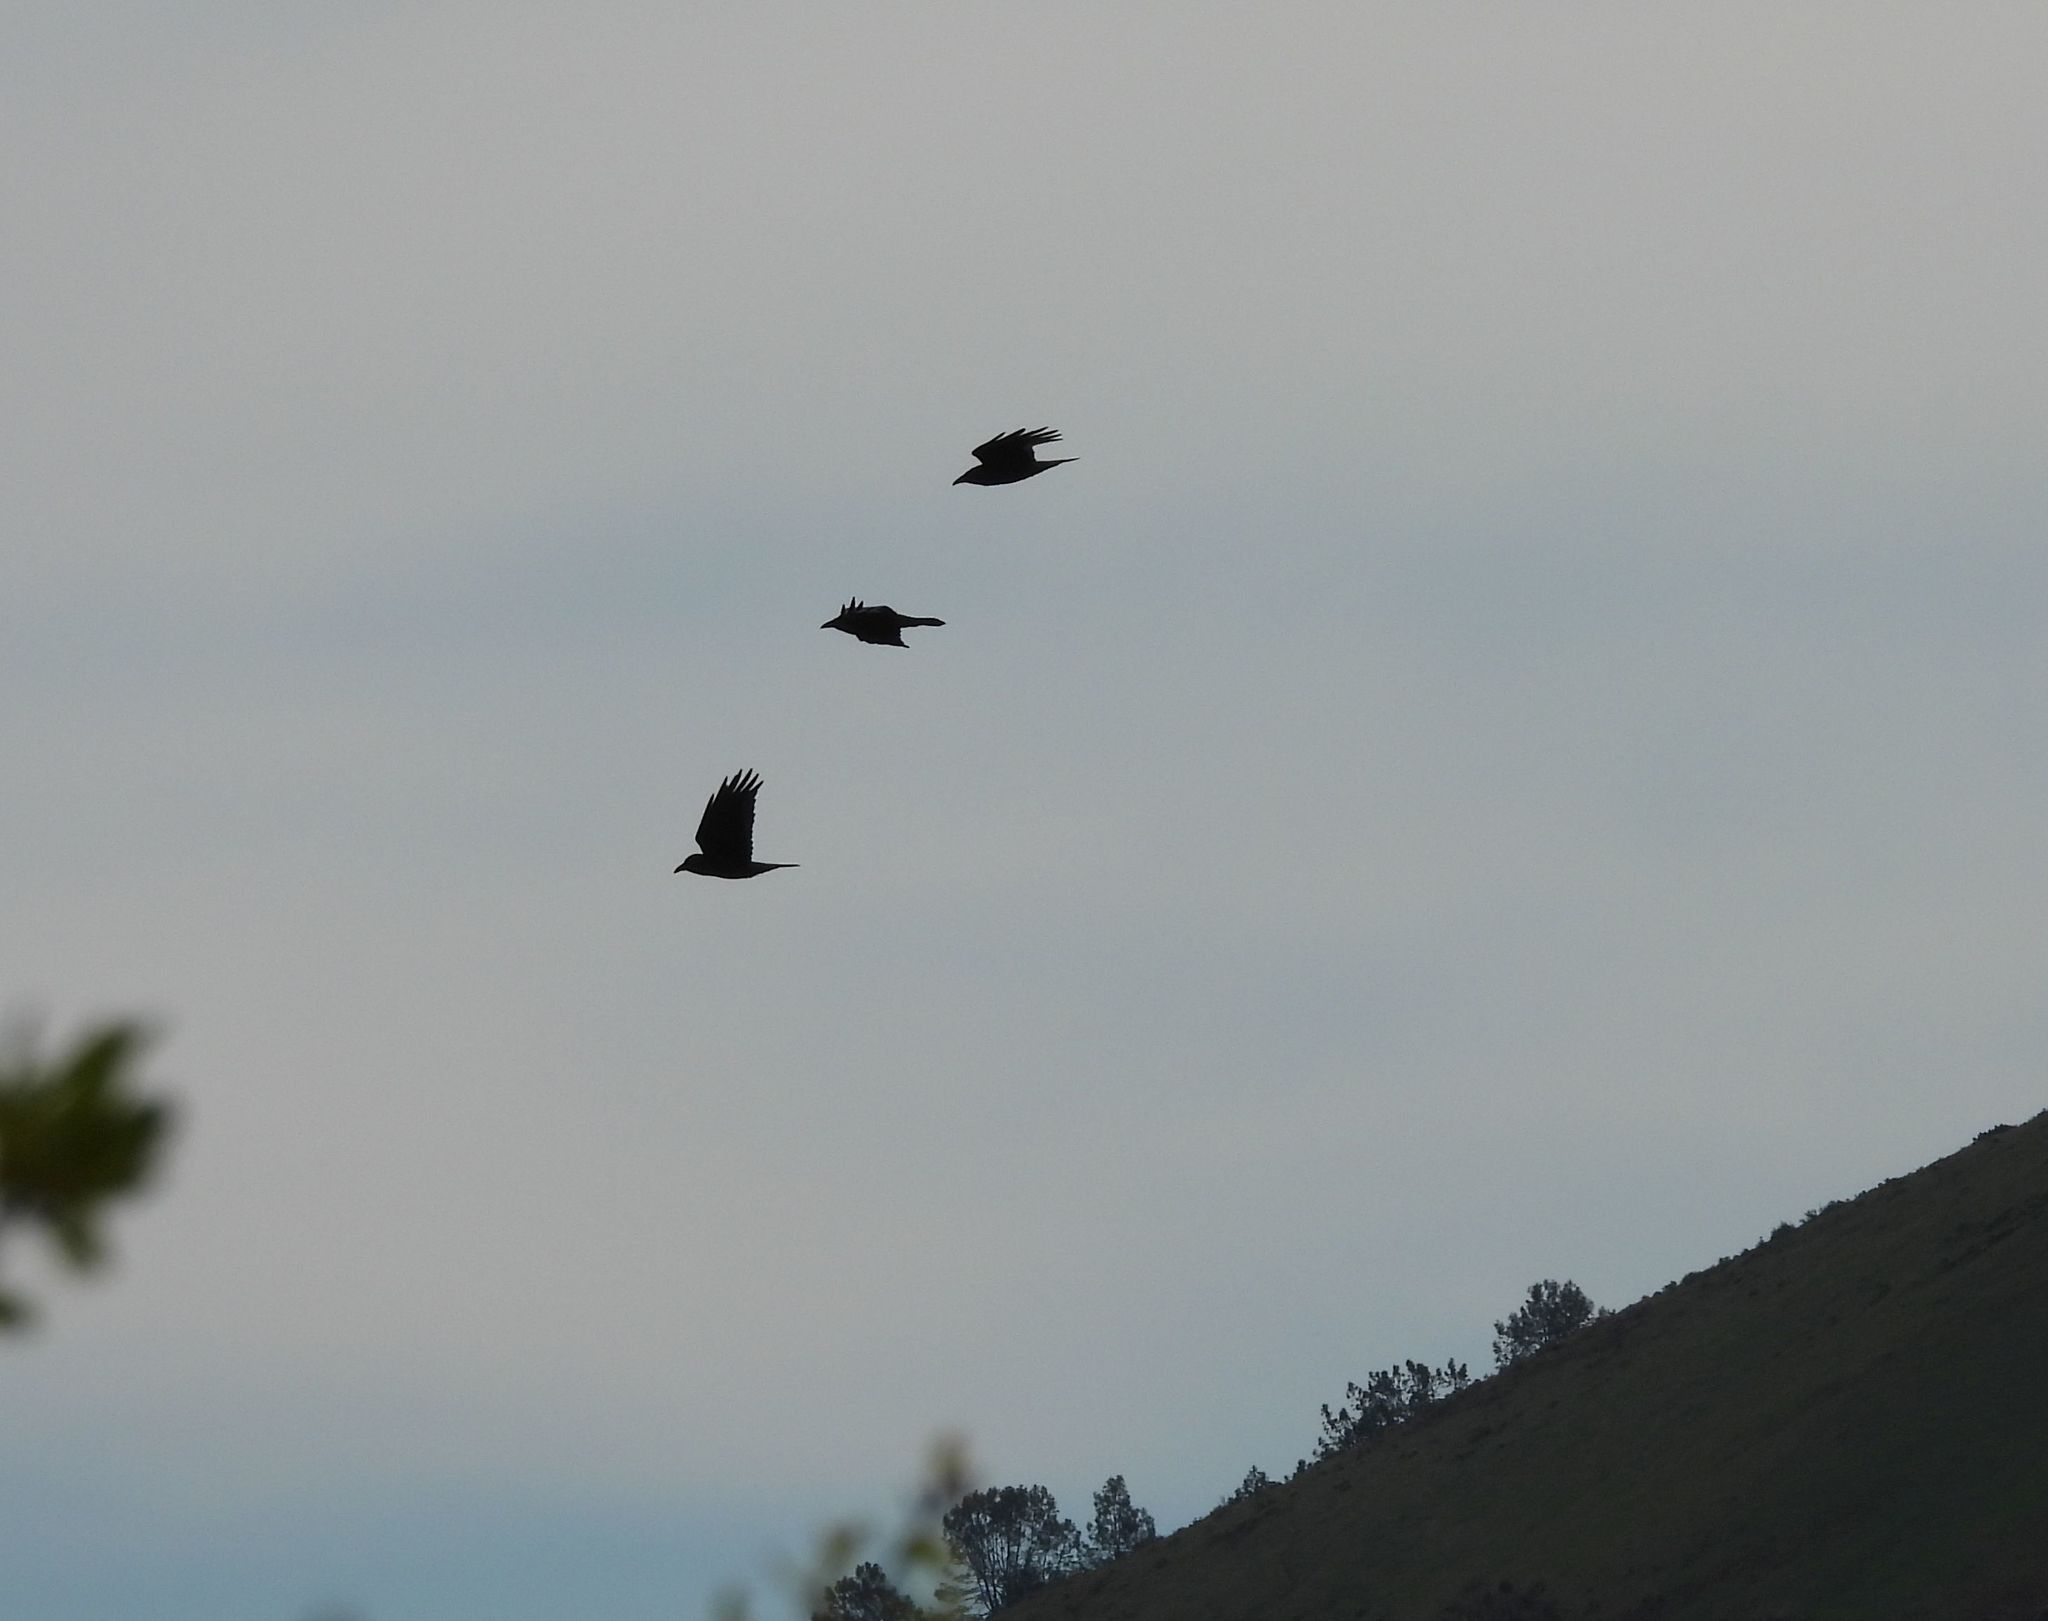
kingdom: Animalia
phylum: Chordata
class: Aves
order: Passeriformes
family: Corvidae
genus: Corvus
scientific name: Corvus corax
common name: Common raven
